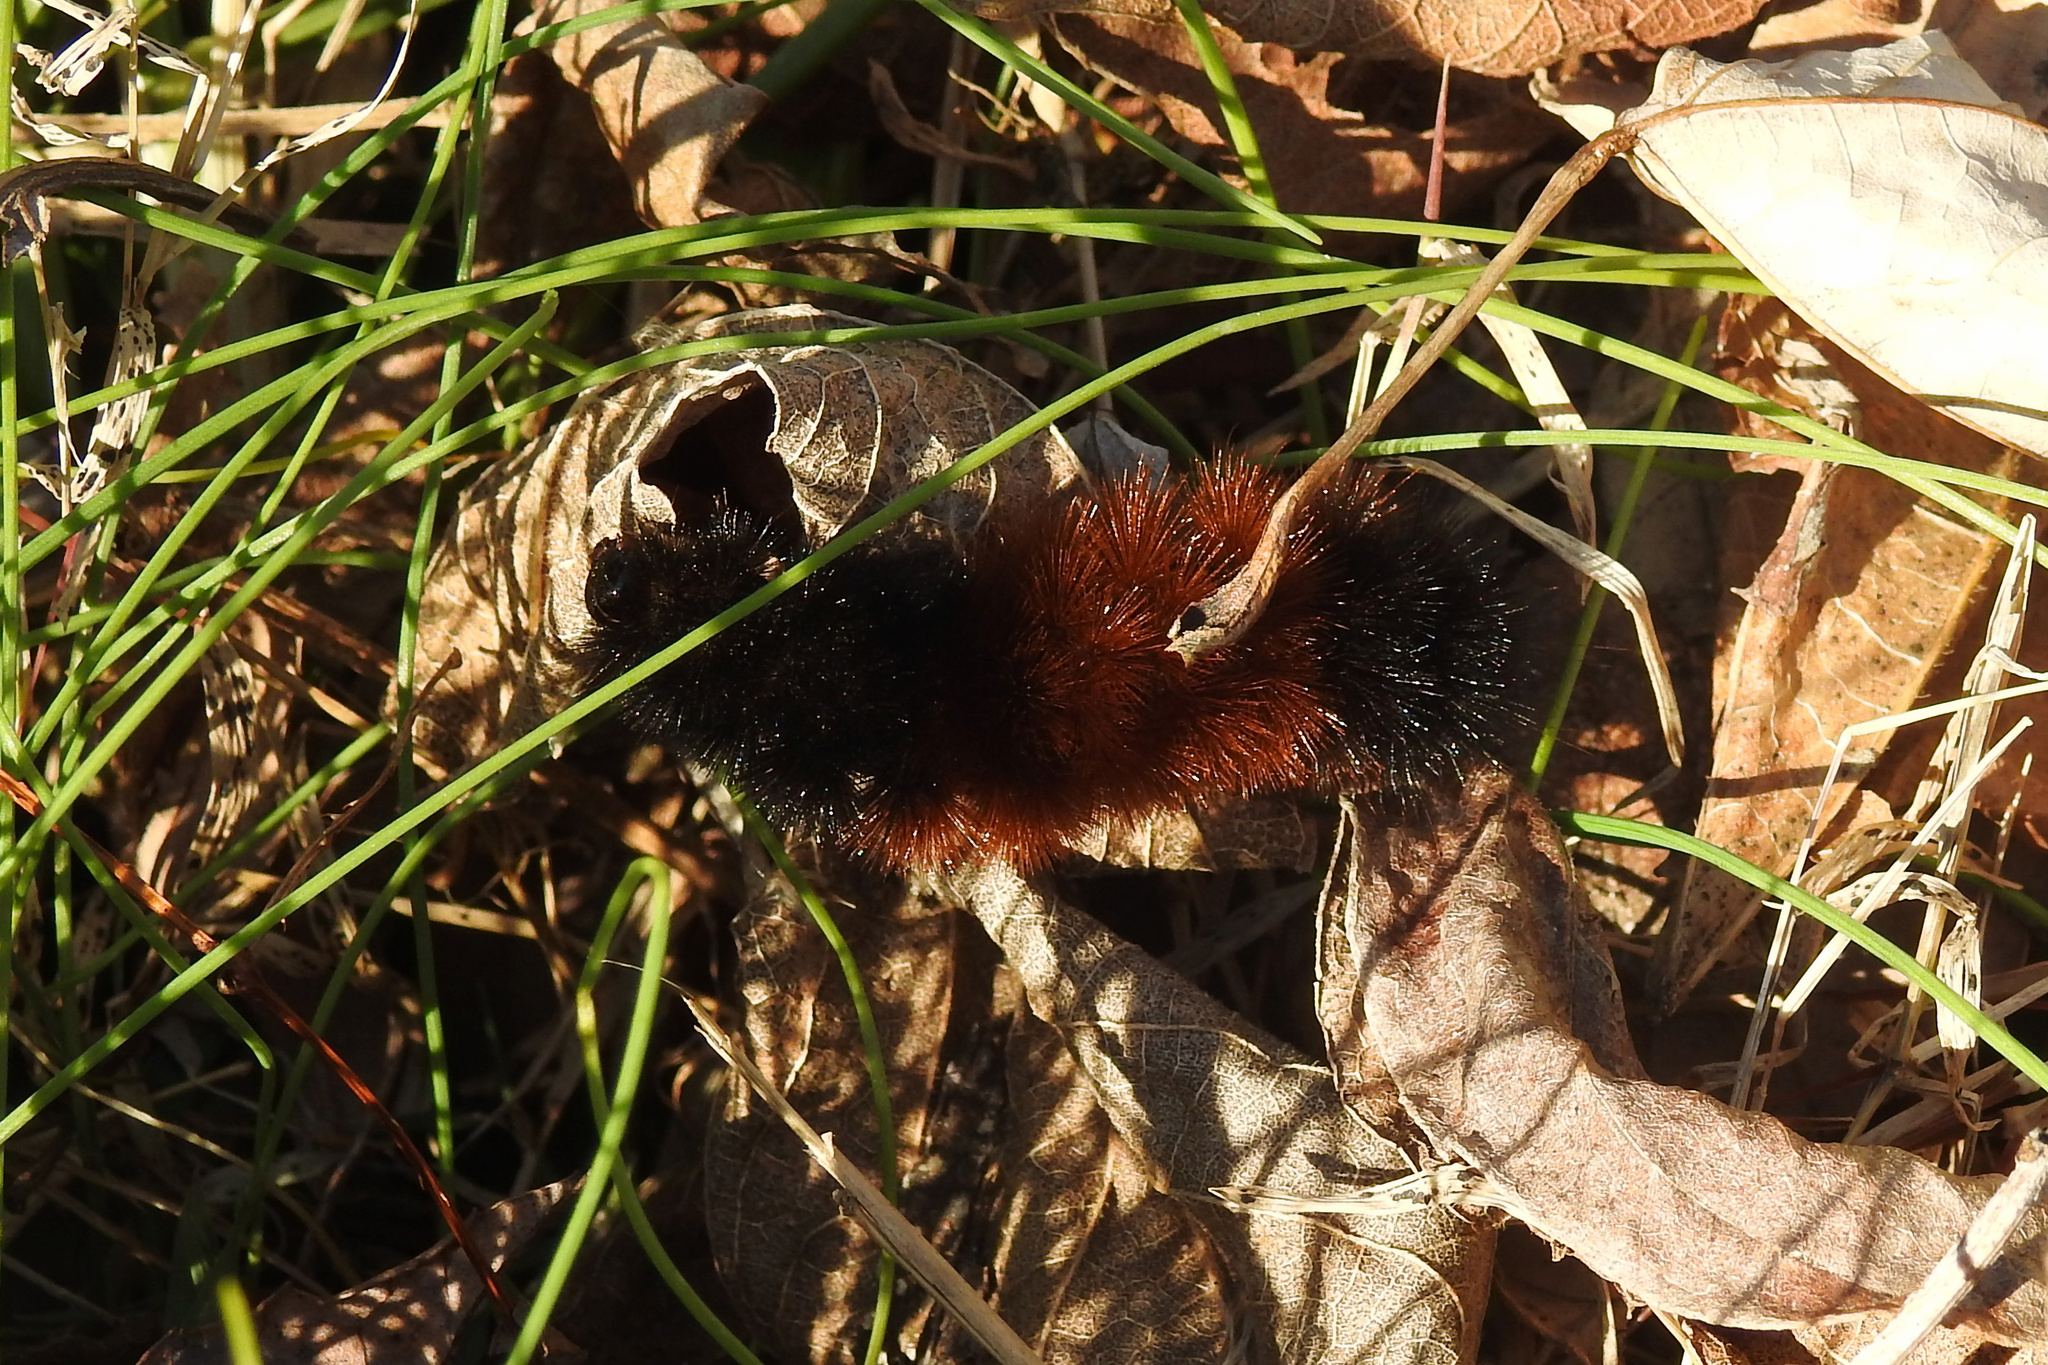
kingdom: Animalia
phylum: Arthropoda
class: Insecta
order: Lepidoptera
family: Erebidae
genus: Pyrrharctia
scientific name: Pyrrharctia isabella
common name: Isabella tiger moth
